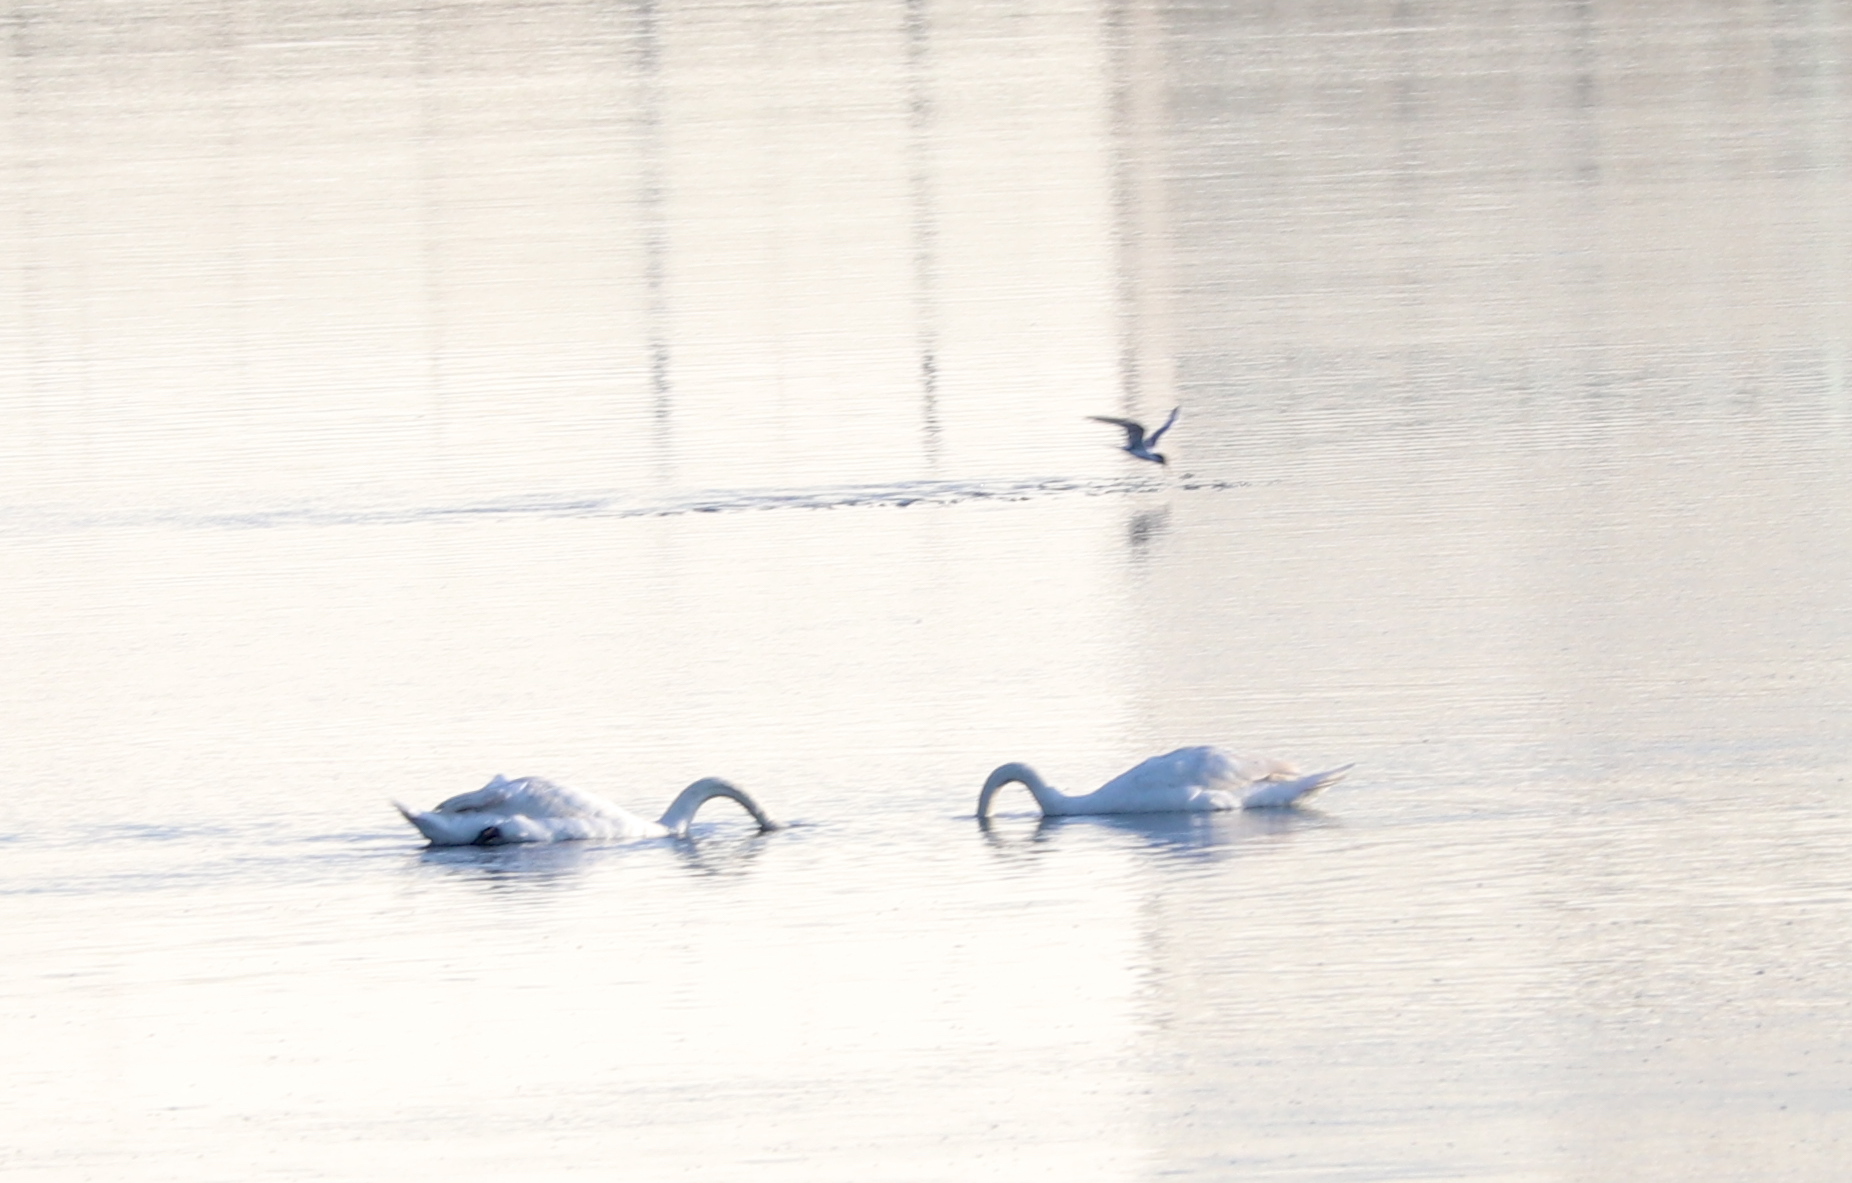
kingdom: Animalia
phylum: Chordata
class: Aves
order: Anseriformes
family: Anatidae
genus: Cygnus
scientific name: Cygnus olor
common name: Mute swan
